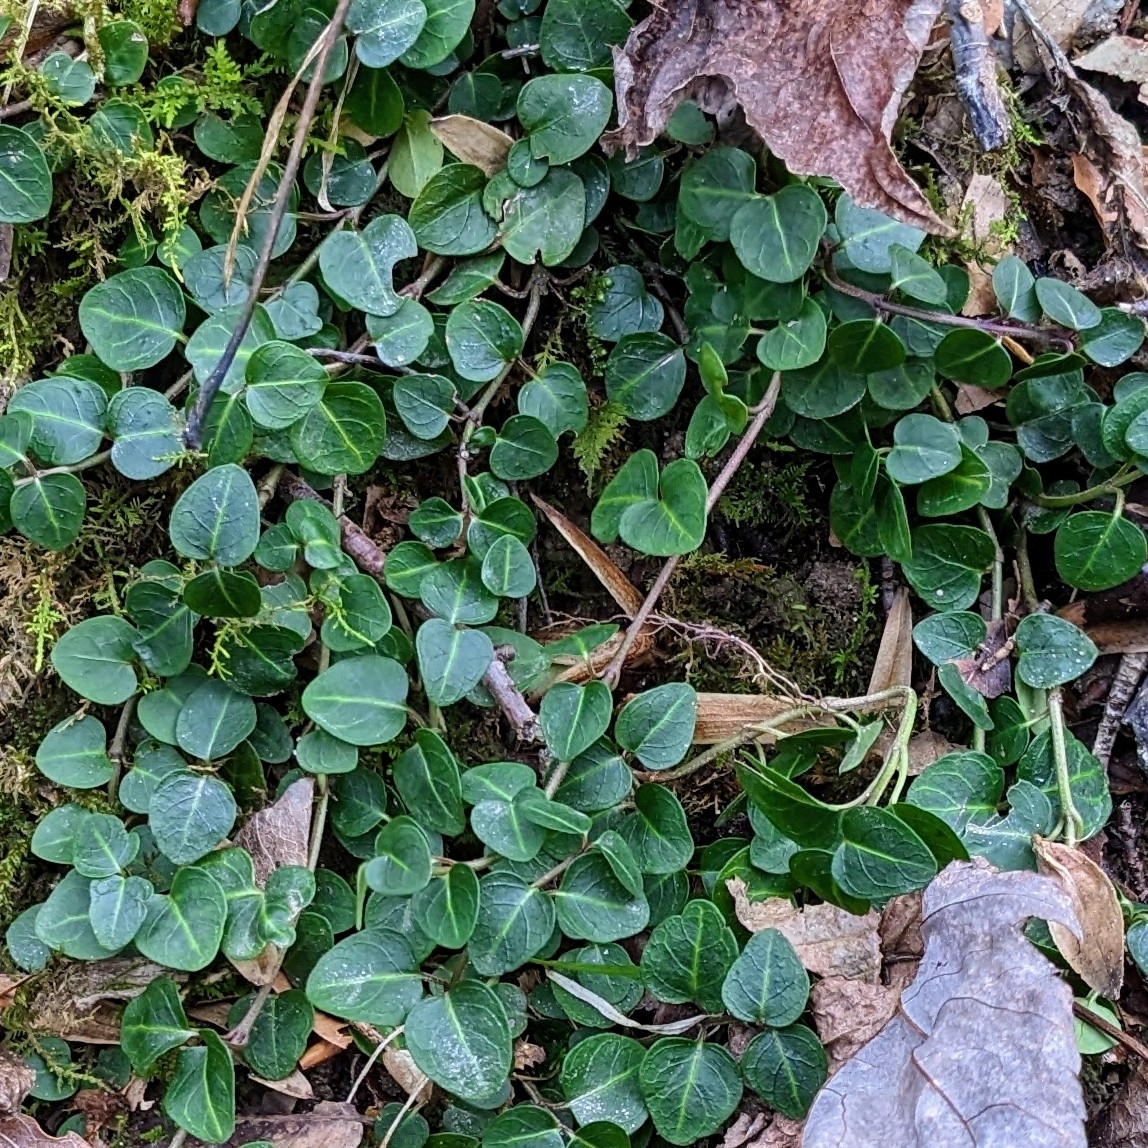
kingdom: Plantae
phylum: Tracheophyta
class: Magnoliopsida
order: Gentianales
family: Rubiaceae
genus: Mitchella
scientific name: Mitchella repens
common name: Partridge-berry
